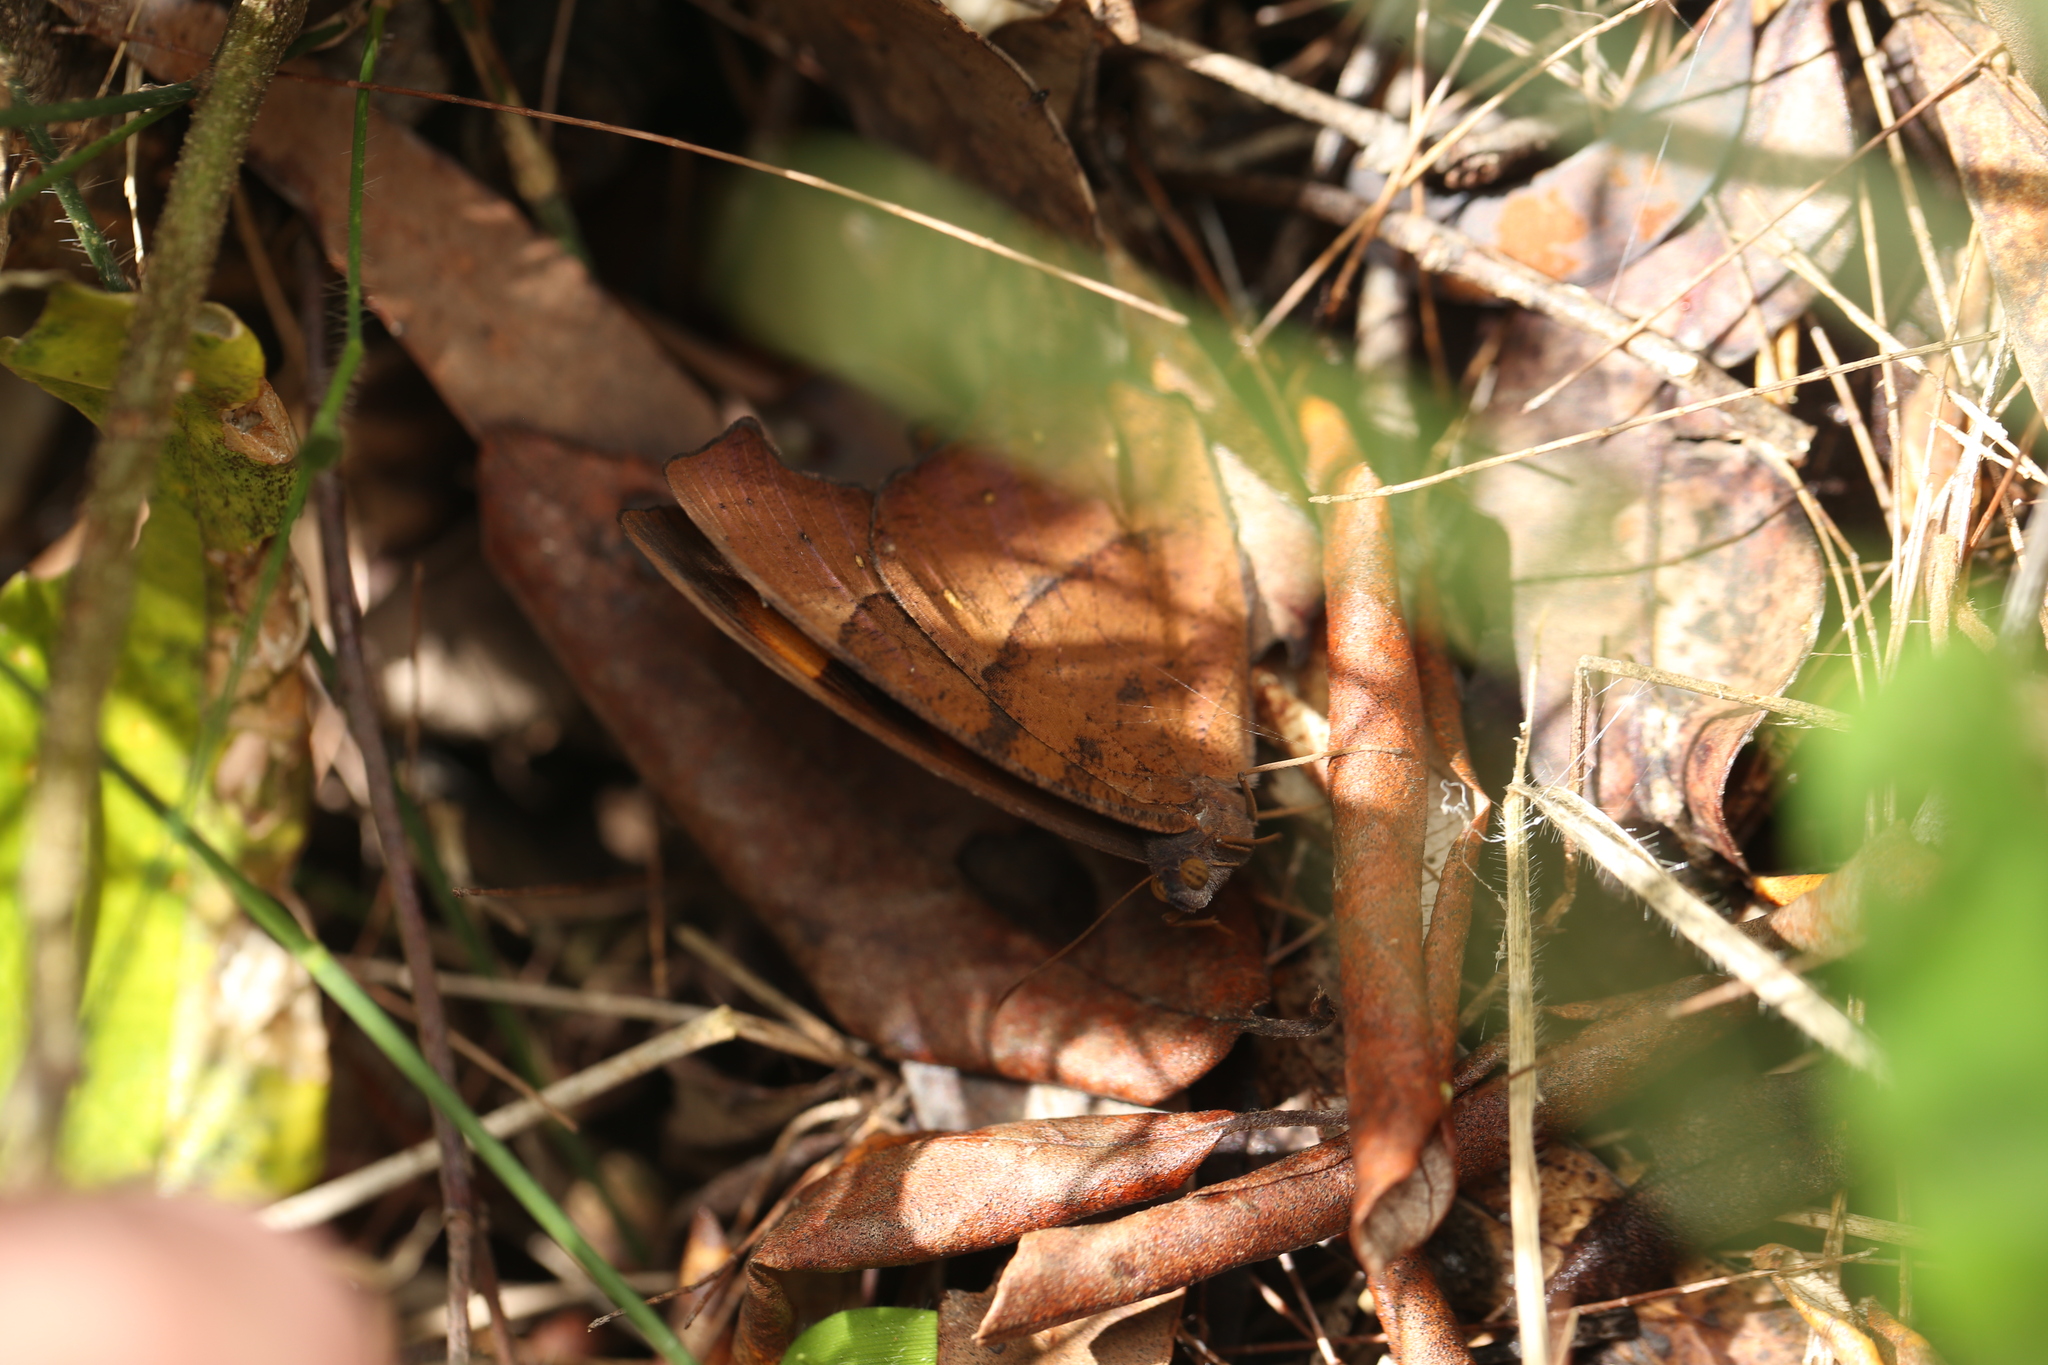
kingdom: Animalia
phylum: Arthropoda
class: Insecta
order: Lepidoptera
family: Nymphalidae
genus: Melanitis
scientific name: Melanitis leda
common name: Twilight brown
